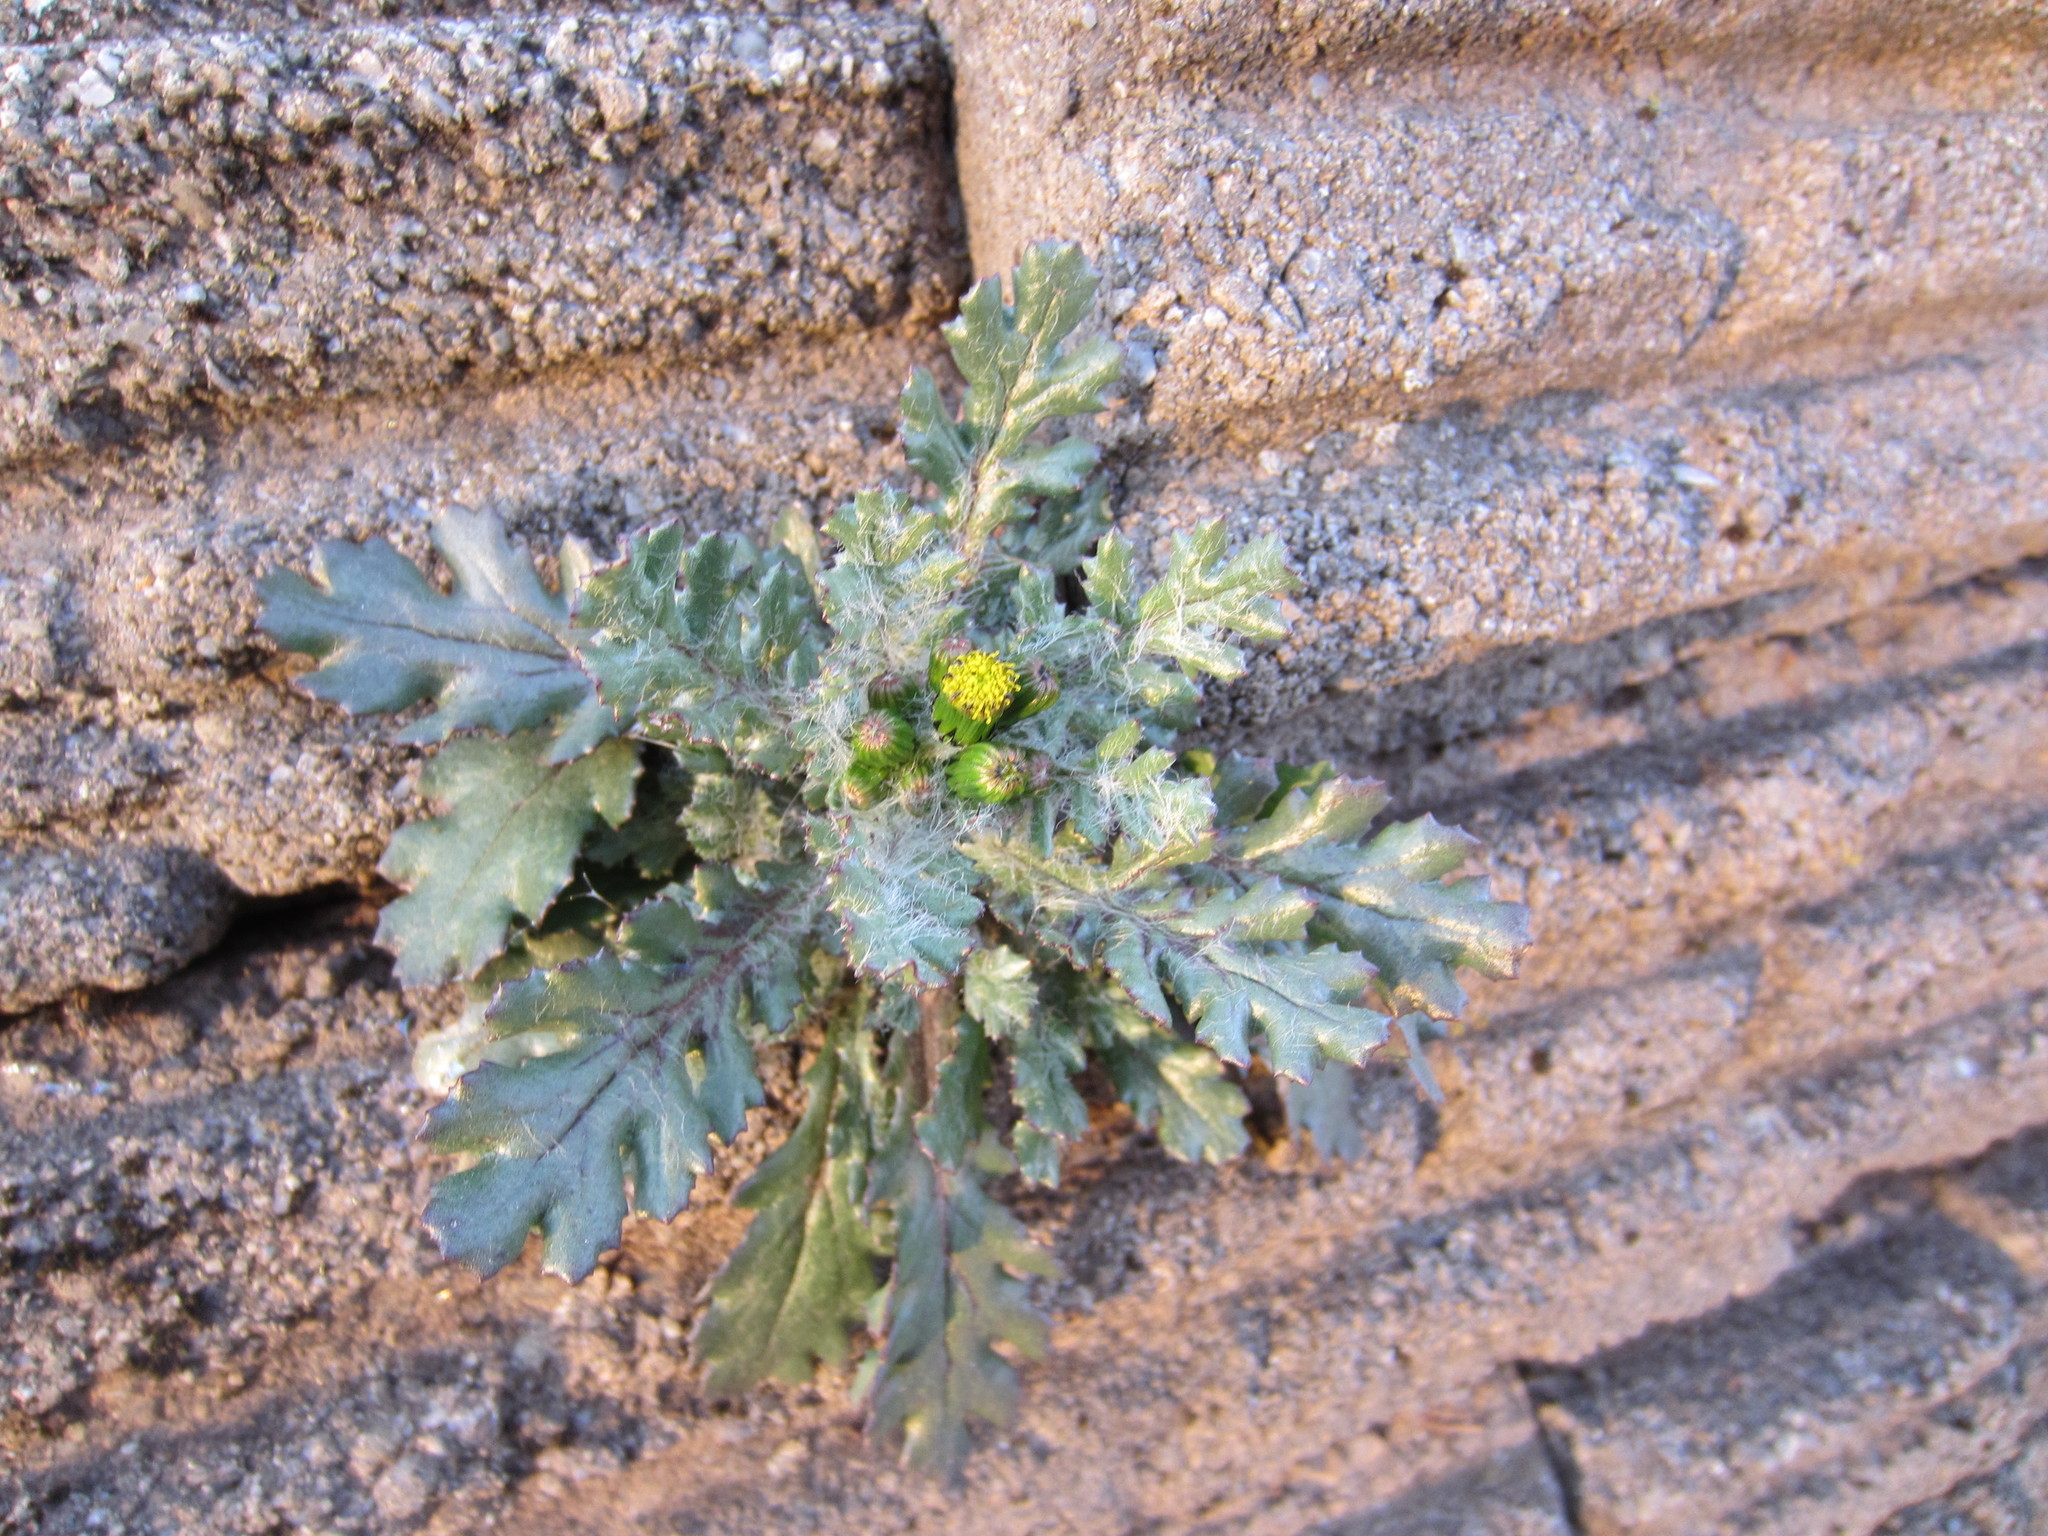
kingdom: Plantae
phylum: Tracheophyta
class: Magnoliopsida
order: Asterales
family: Asteraceae
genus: Senecio
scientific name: Senecio vulgaris
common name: Old-man-in-the-spring
